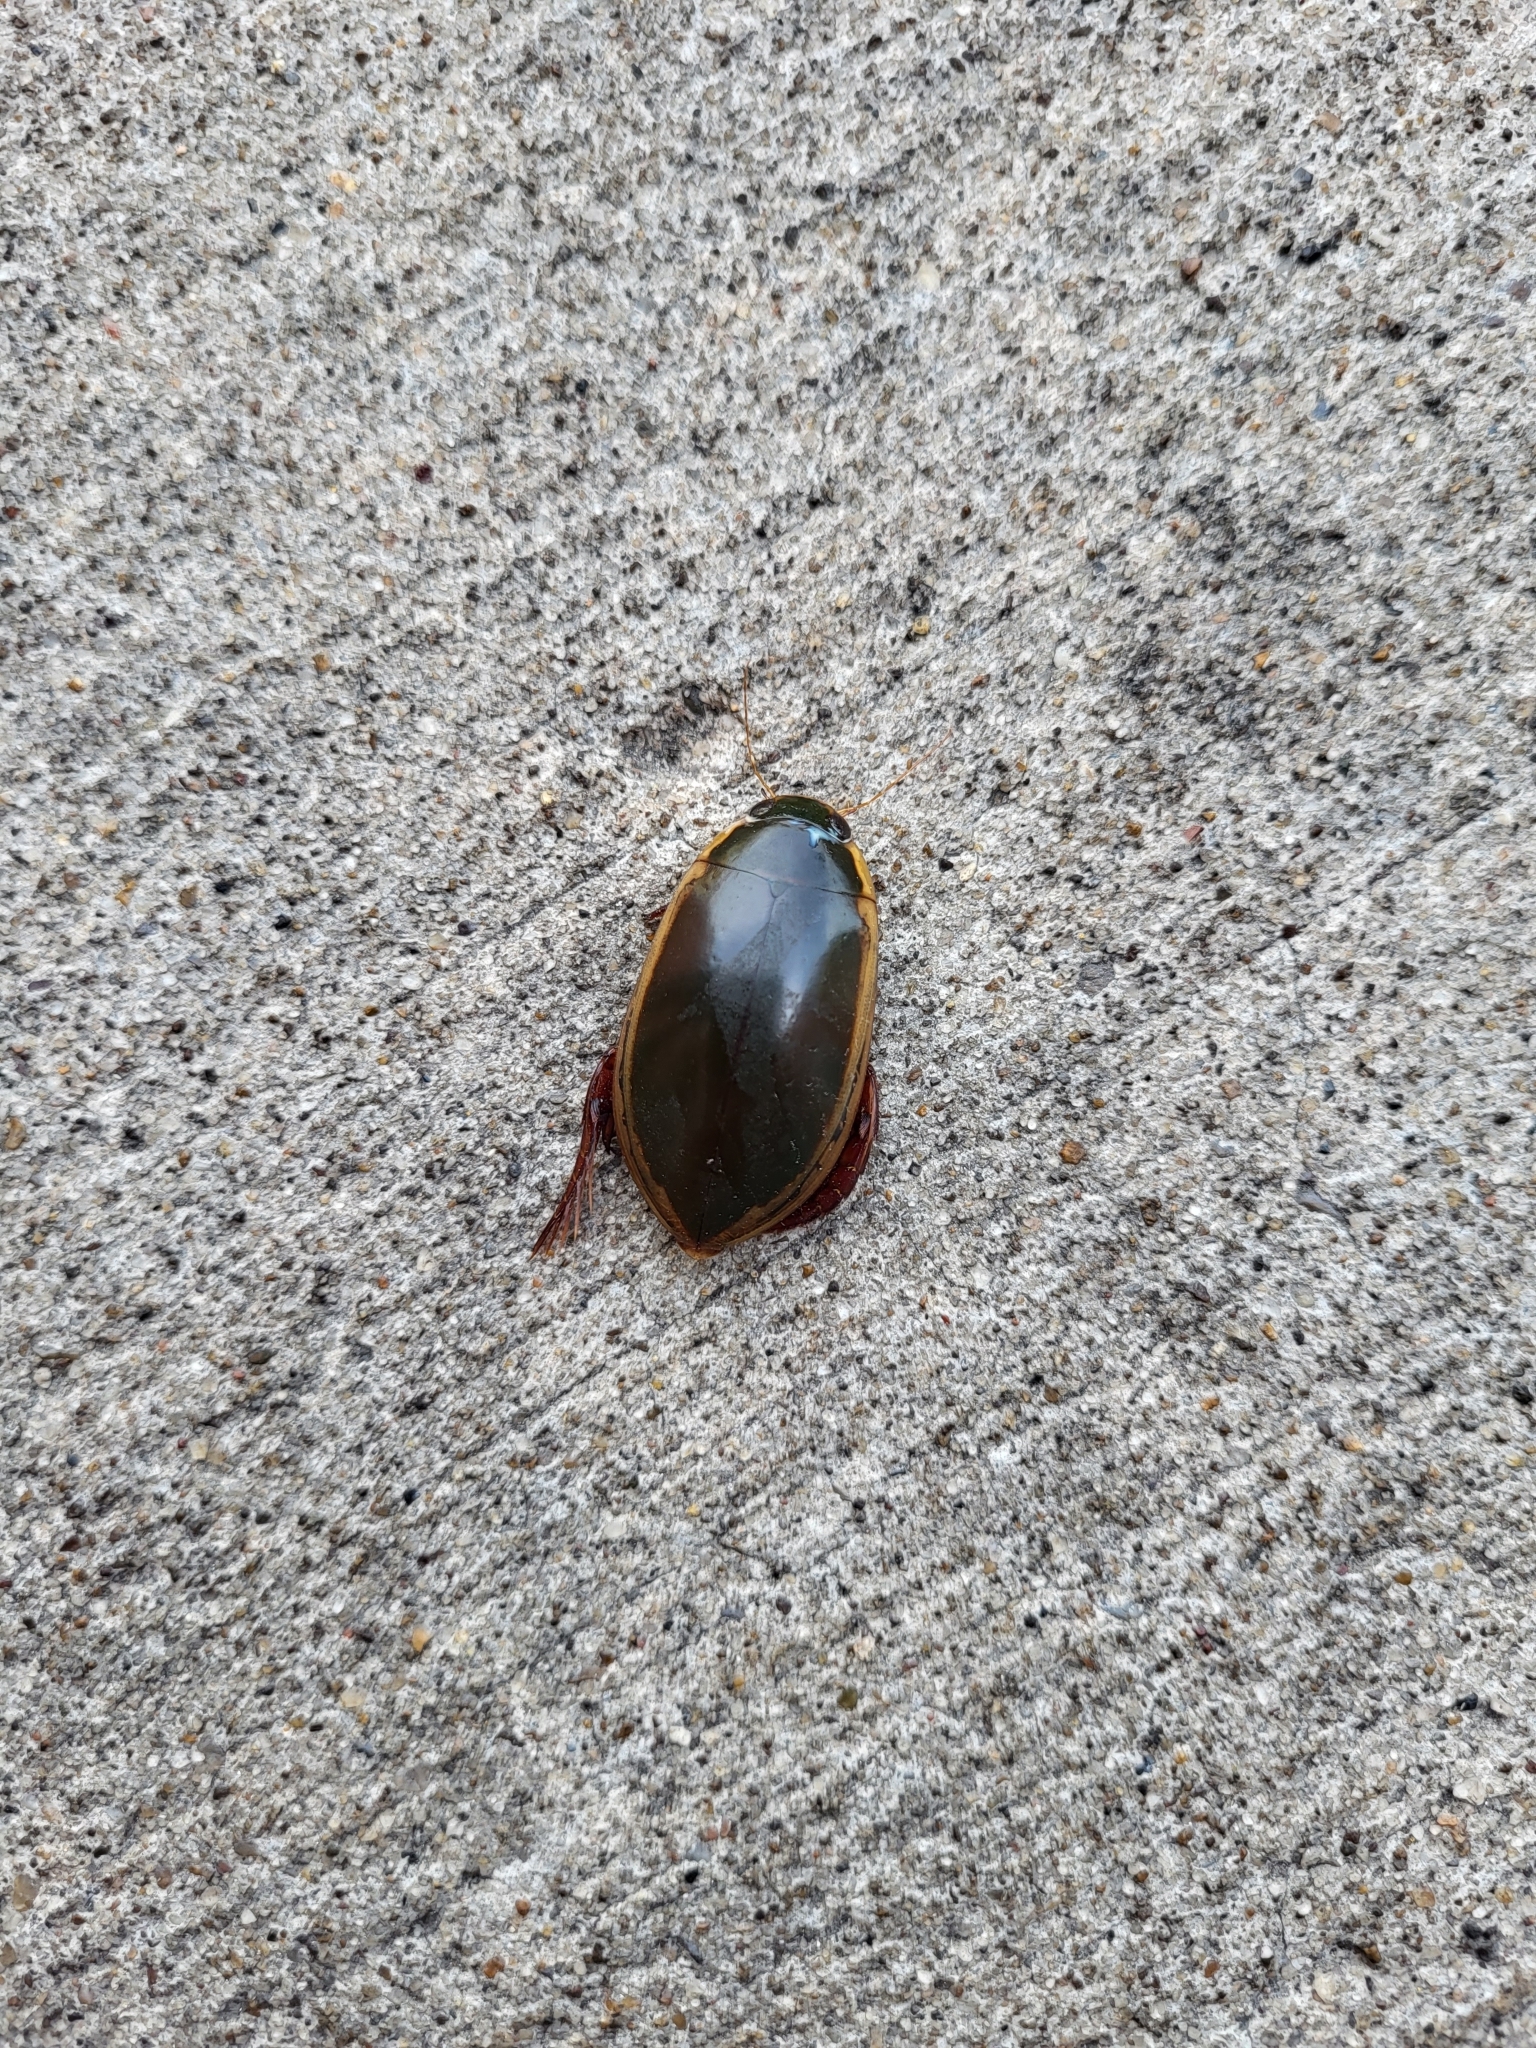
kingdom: Animalia
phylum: Arthropoda
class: Insecta
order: Coleoptera
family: Dytiscidae
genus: Cybister
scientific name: Cybister fimbriolatus
